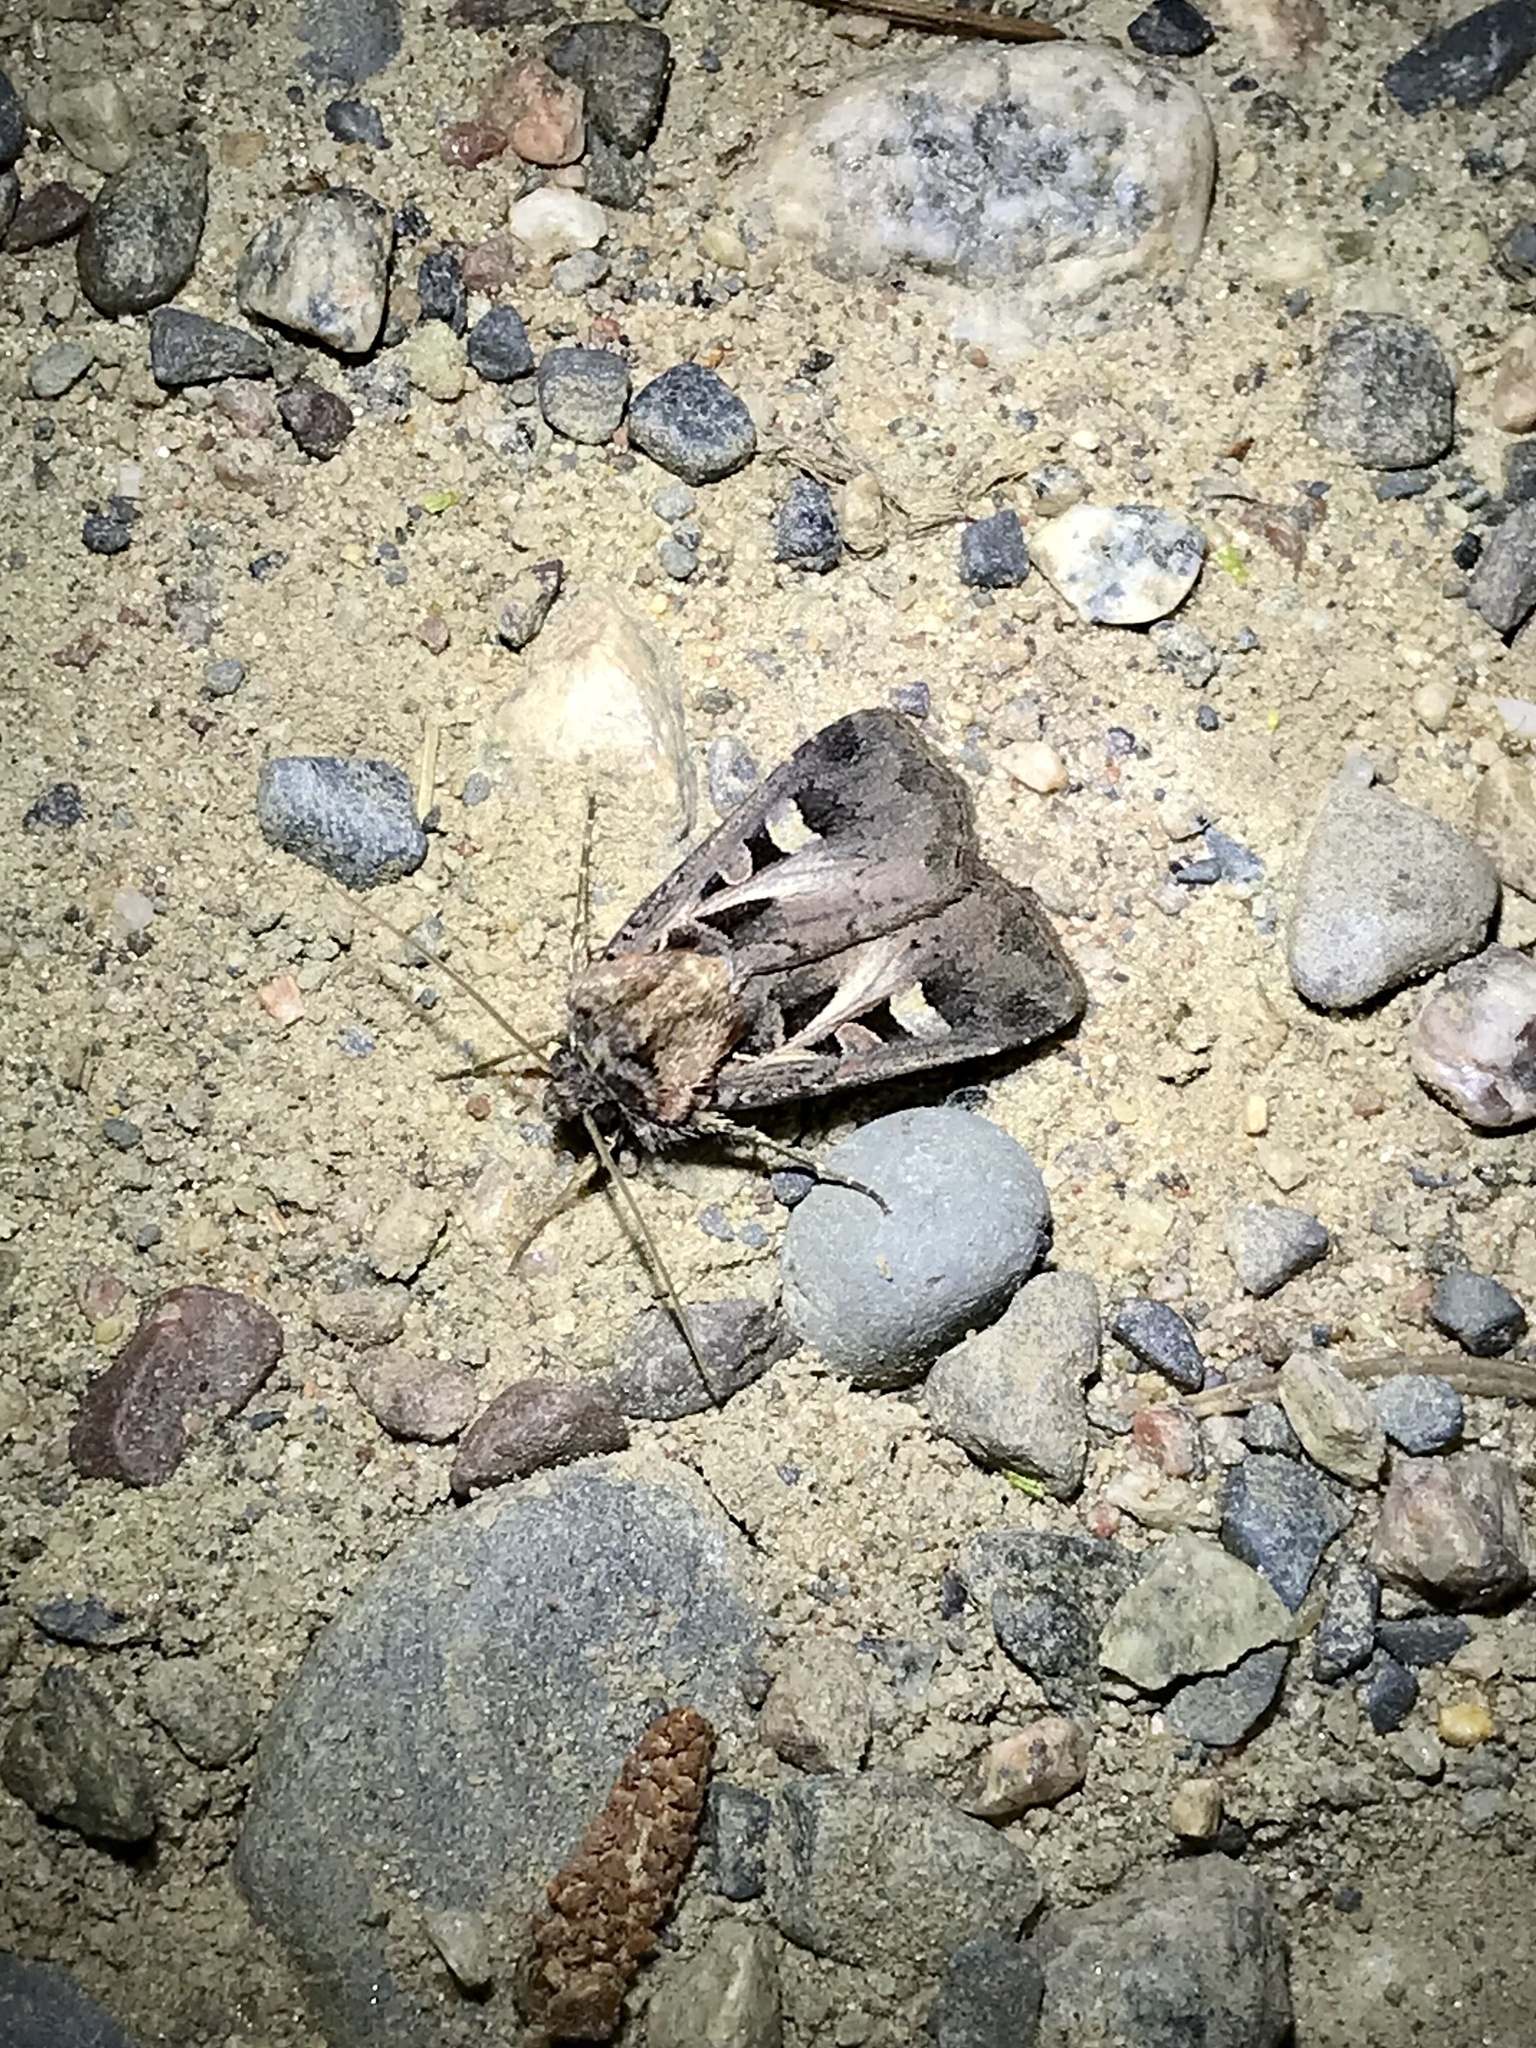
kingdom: Animalia
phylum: Arthropoda
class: Insecta
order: Lepidoptera
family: Noctuidae
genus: Feltia
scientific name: Feltia herilis
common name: Master's dart
